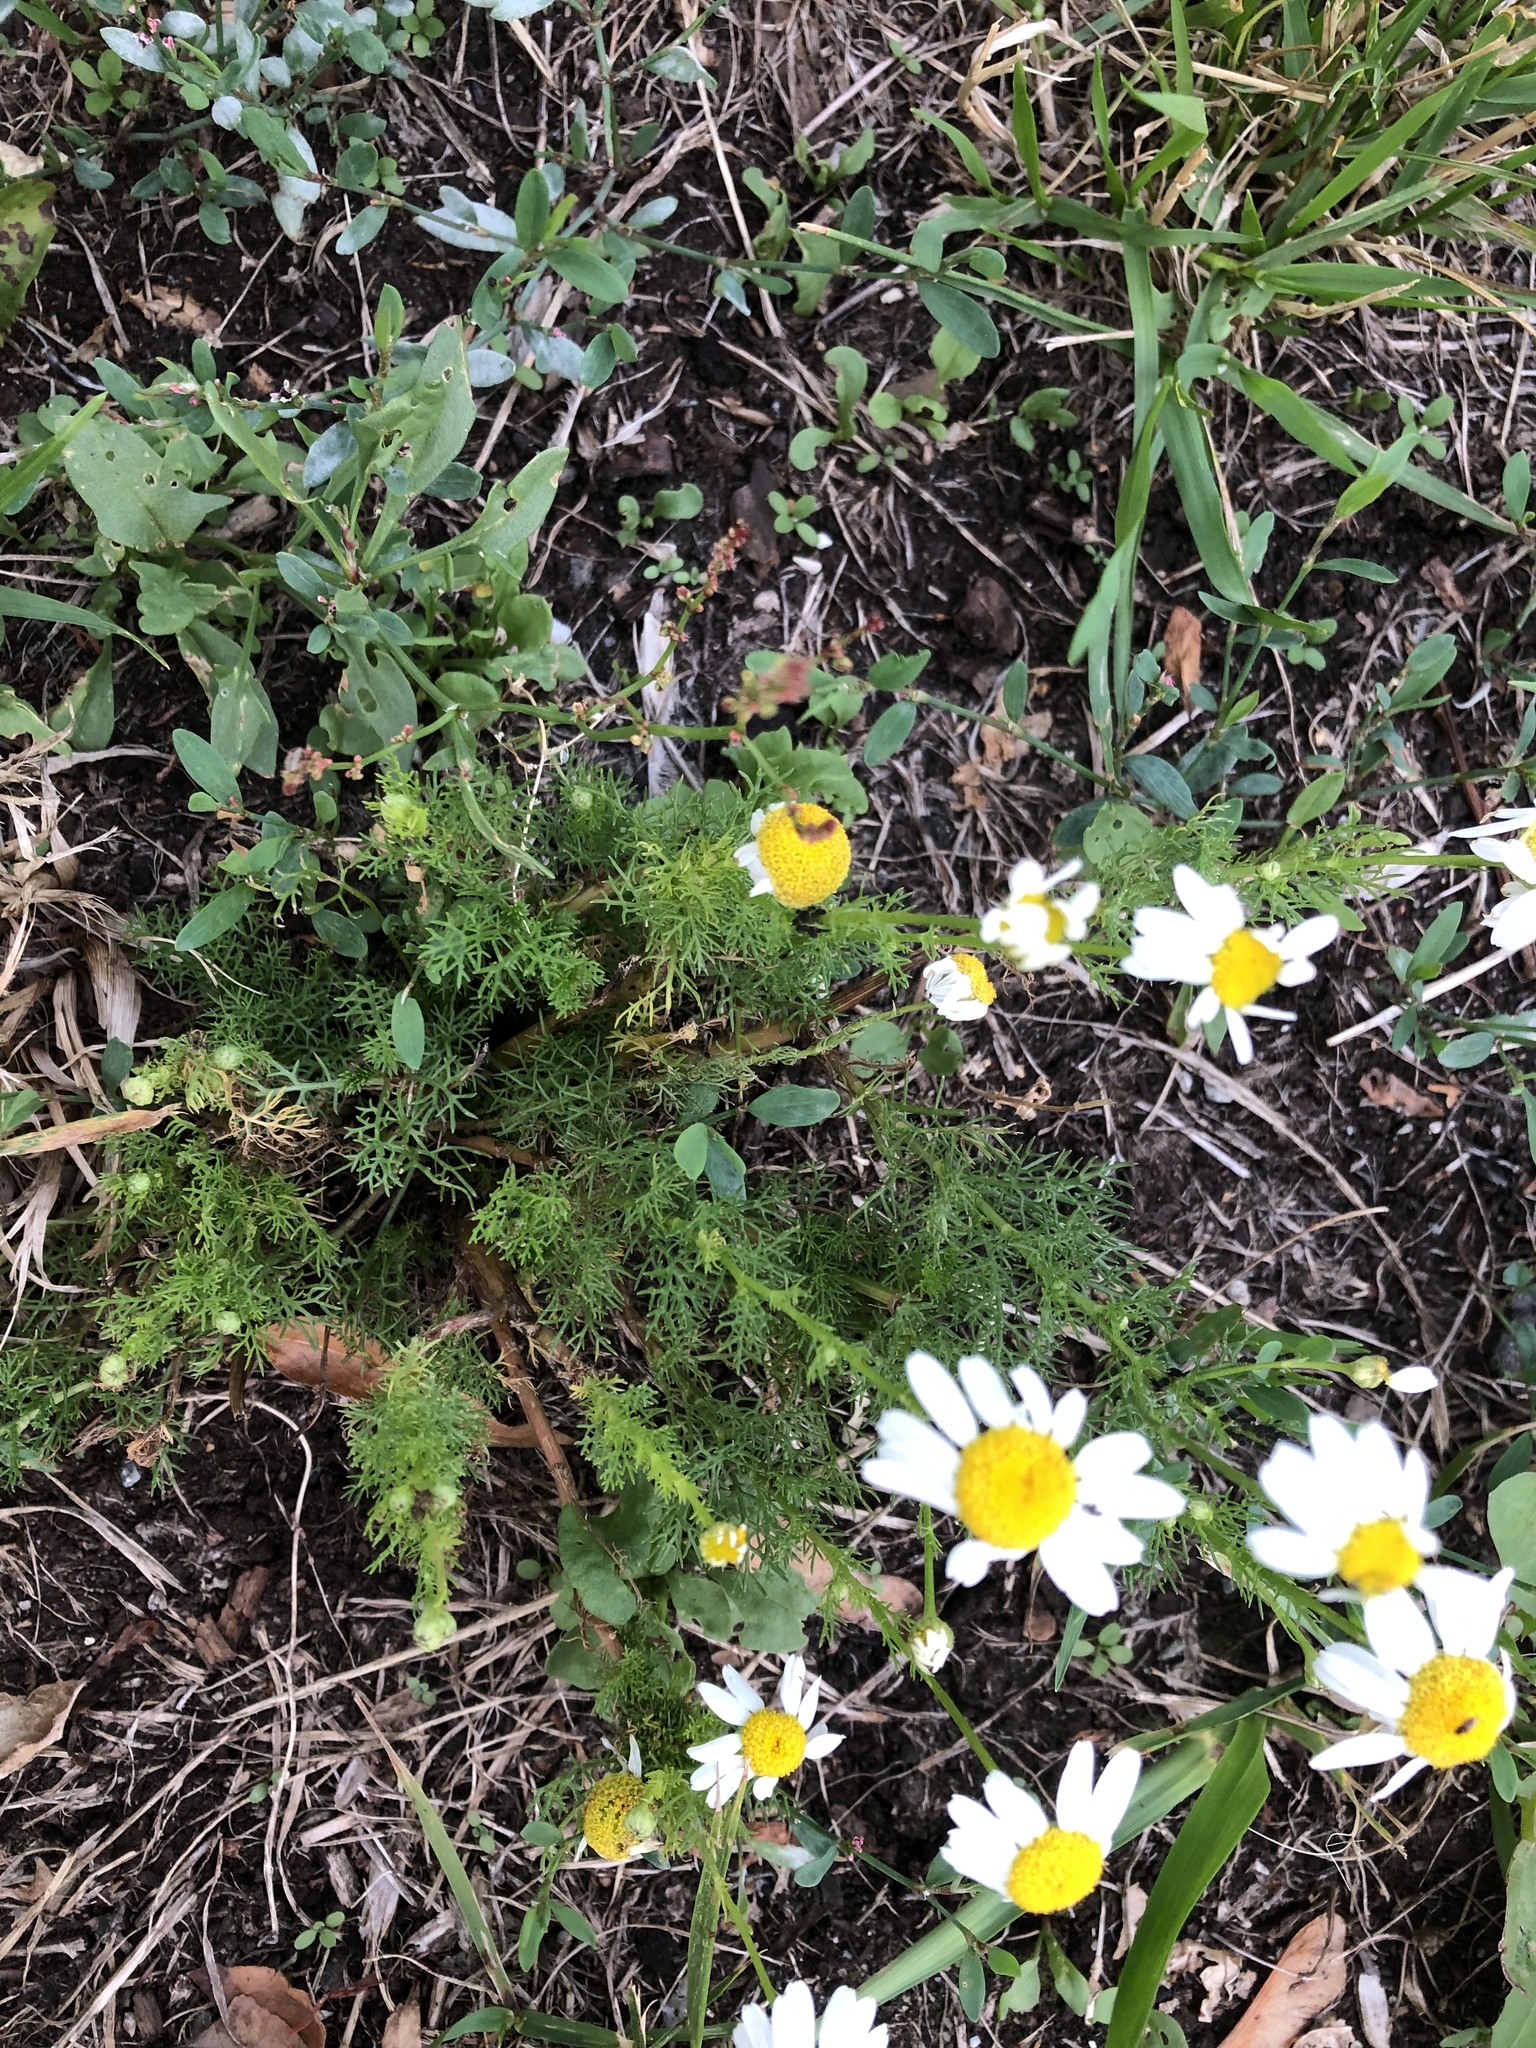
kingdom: Plantae
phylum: Tracheophyta
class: Magnoliopsida
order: Asterales
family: Asteraceae
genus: Tripleurospermum
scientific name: Tripleurospermum inodorum
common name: Scentless mayweed
